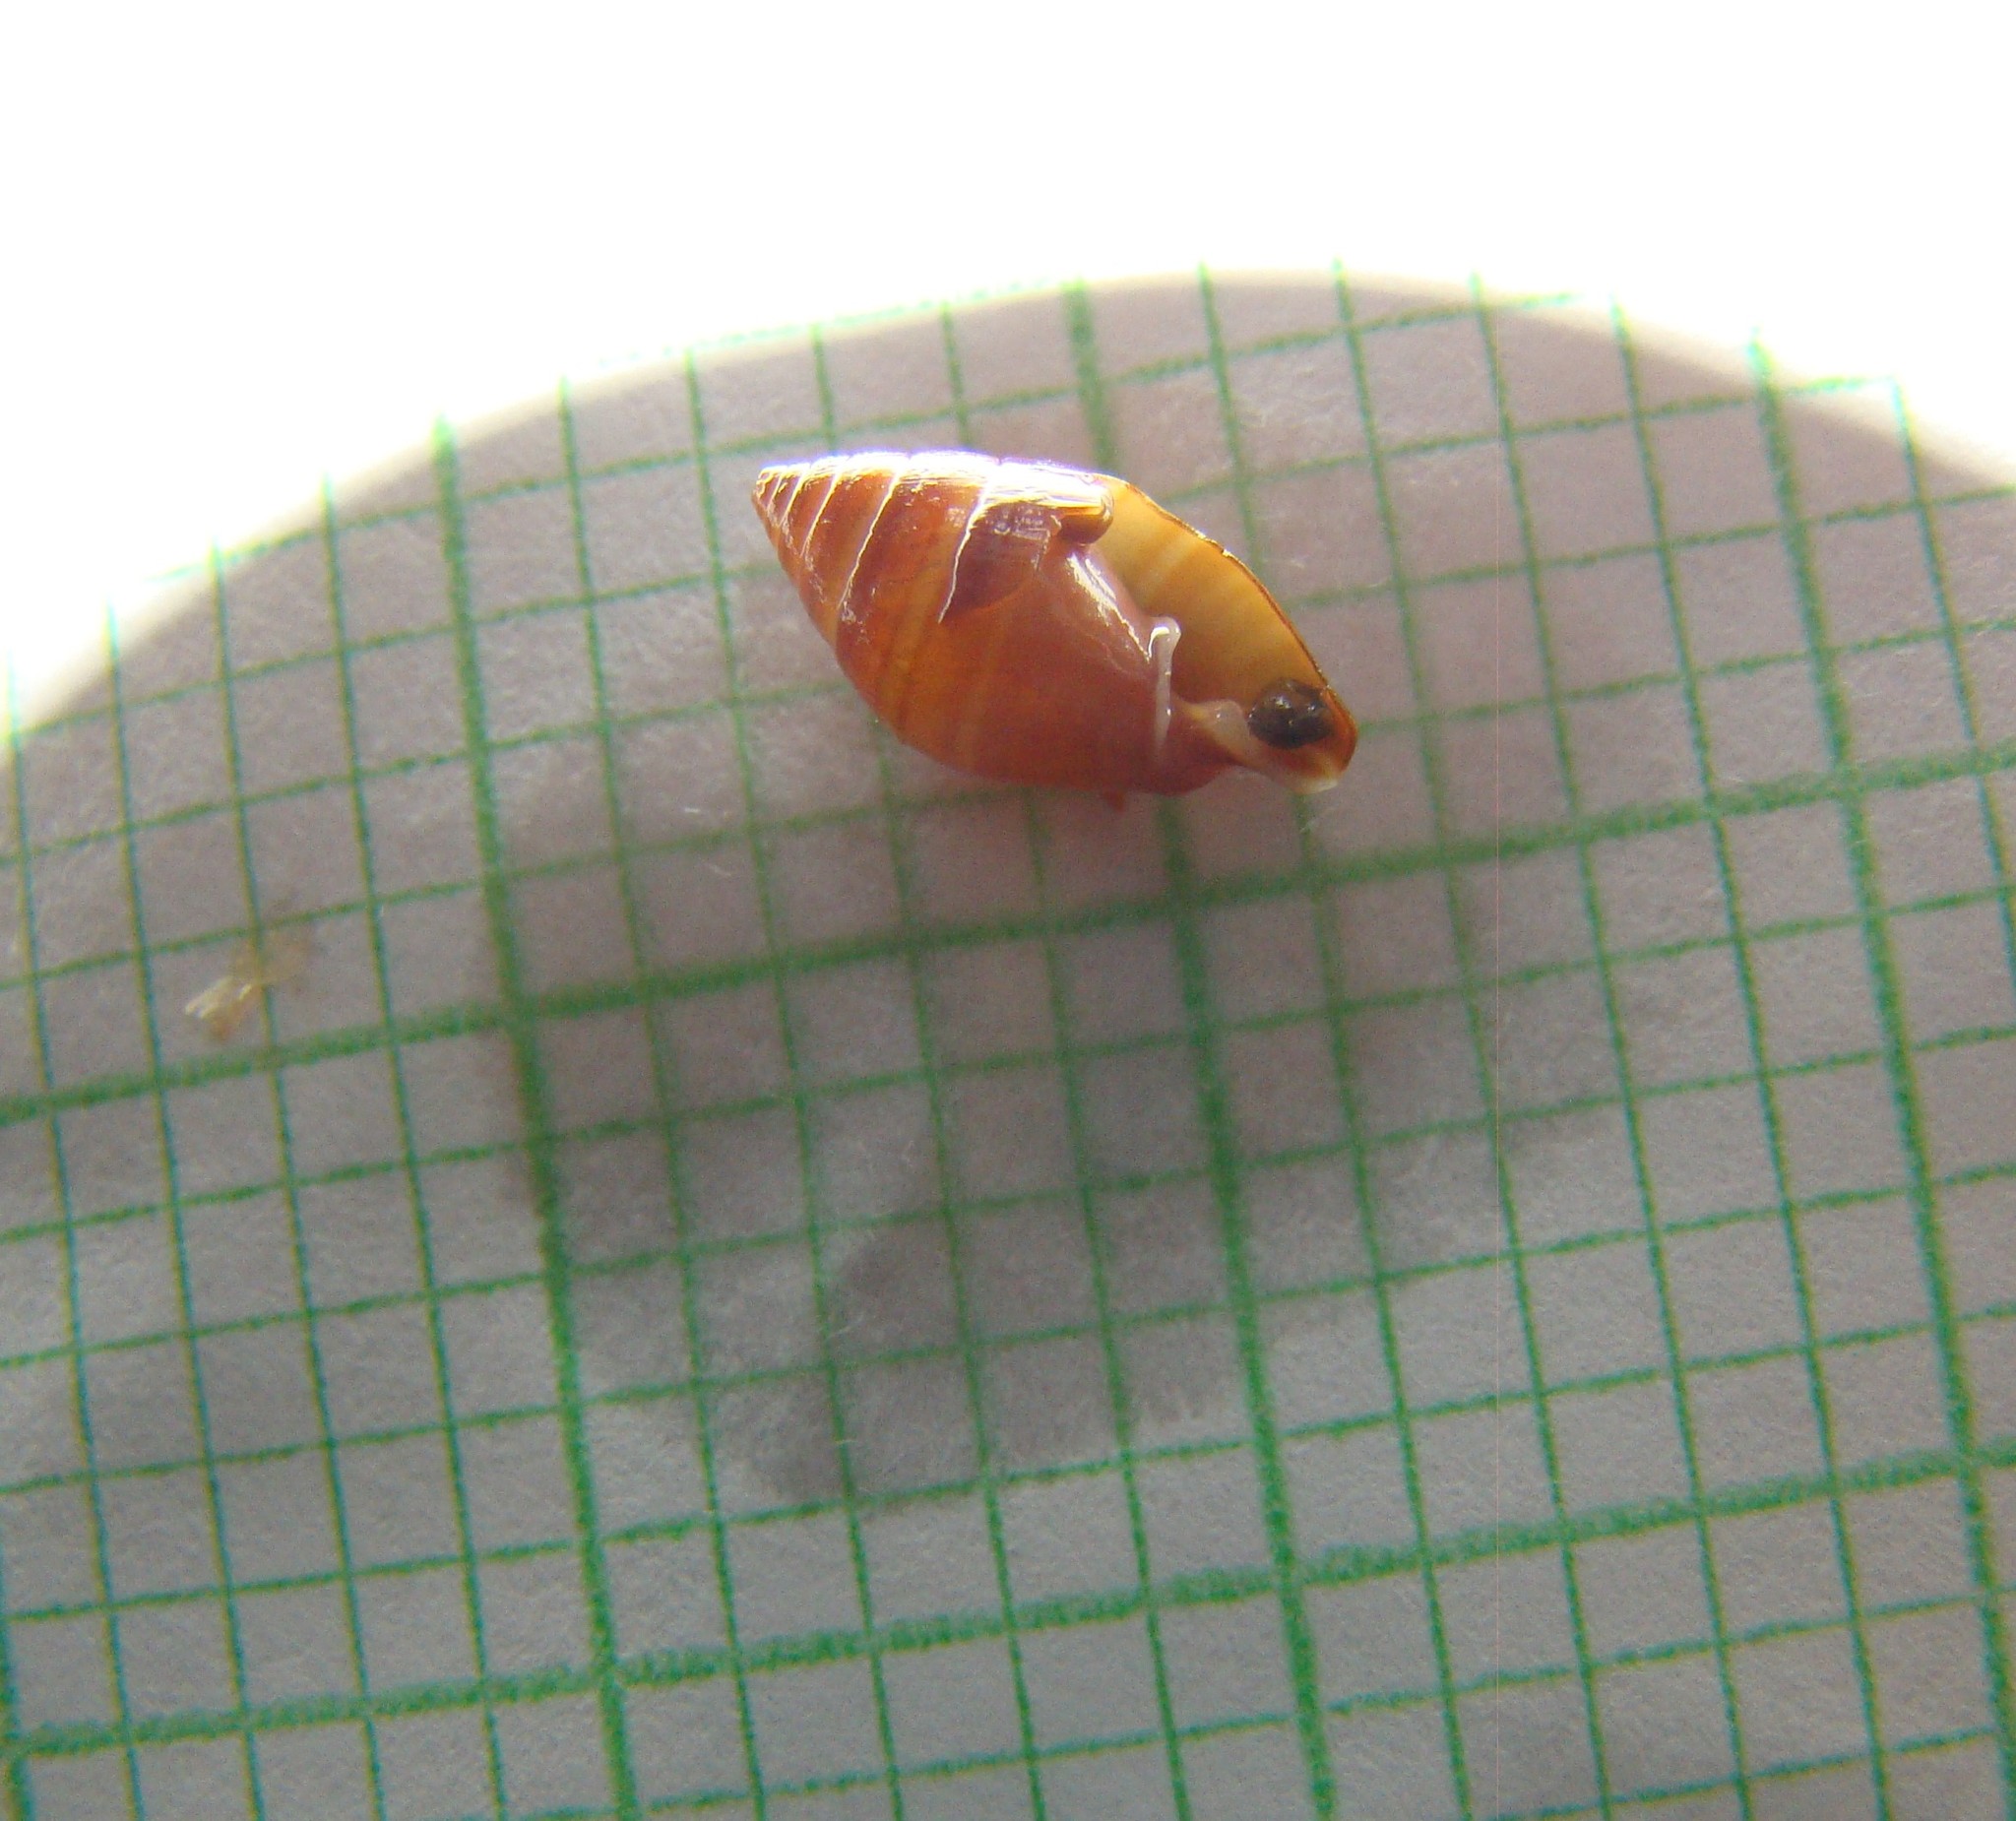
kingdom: Animalia
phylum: Mollusca
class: Gastropoda
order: Ellobiida
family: Ellobiidae
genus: Pleuroloba
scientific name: Pleuroloba costellaris
